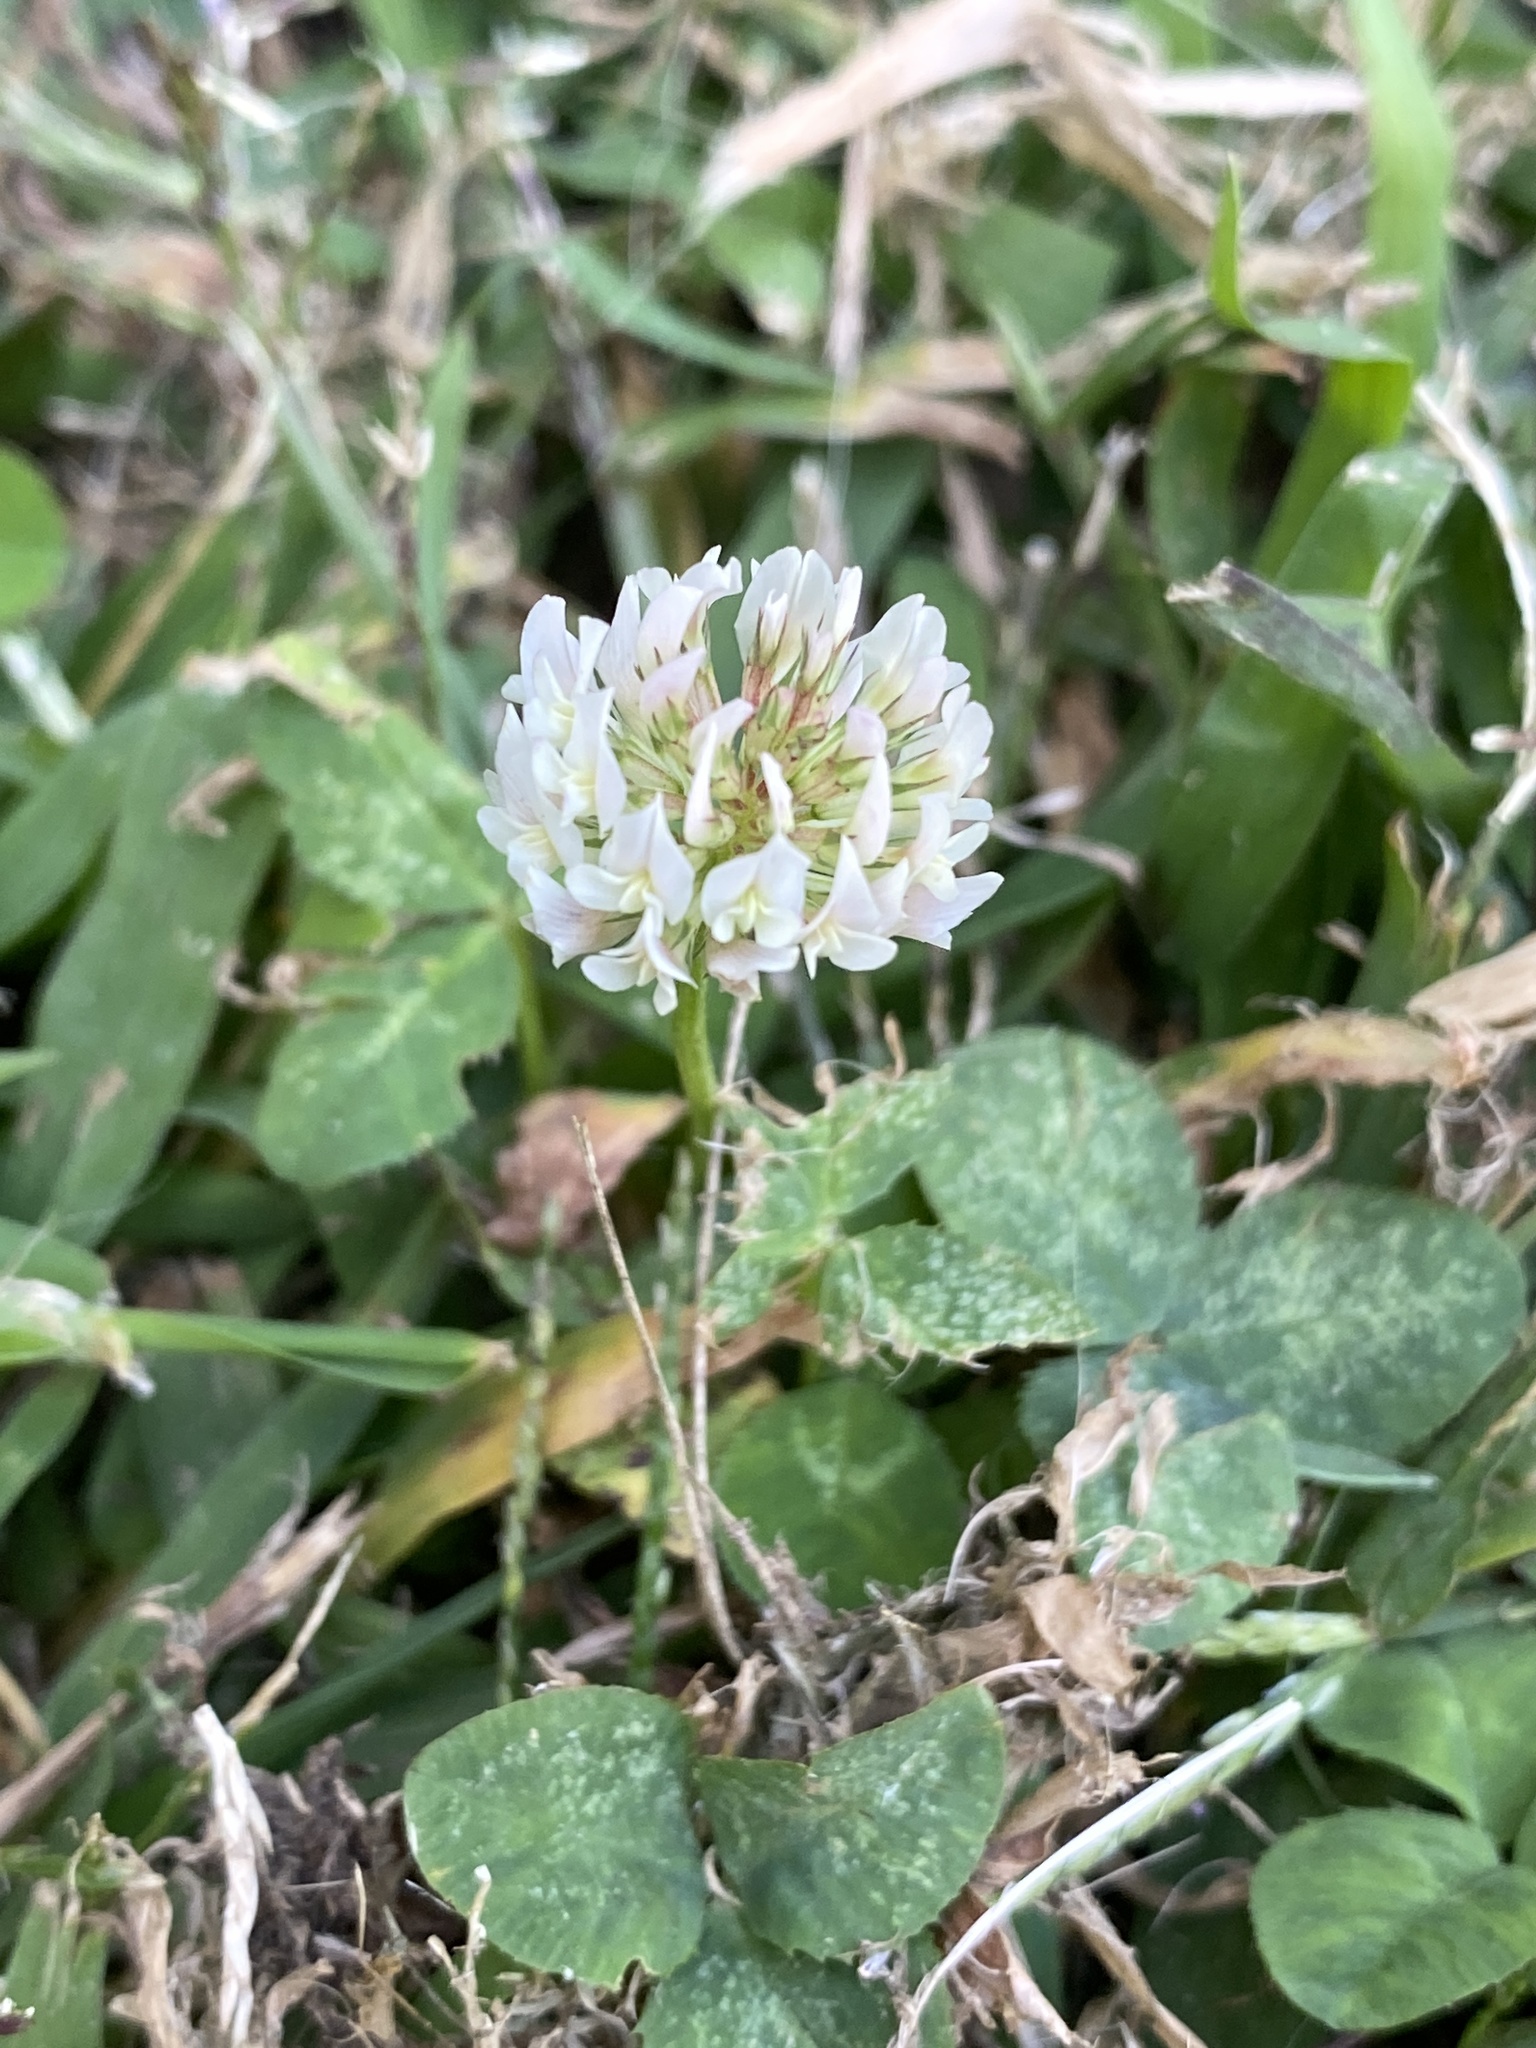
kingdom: Plantae
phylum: Tracheophyta
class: Magnoliopsida
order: Fabales
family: Fabaceae
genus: Trifolium
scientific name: Trifolium repens
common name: White clover
